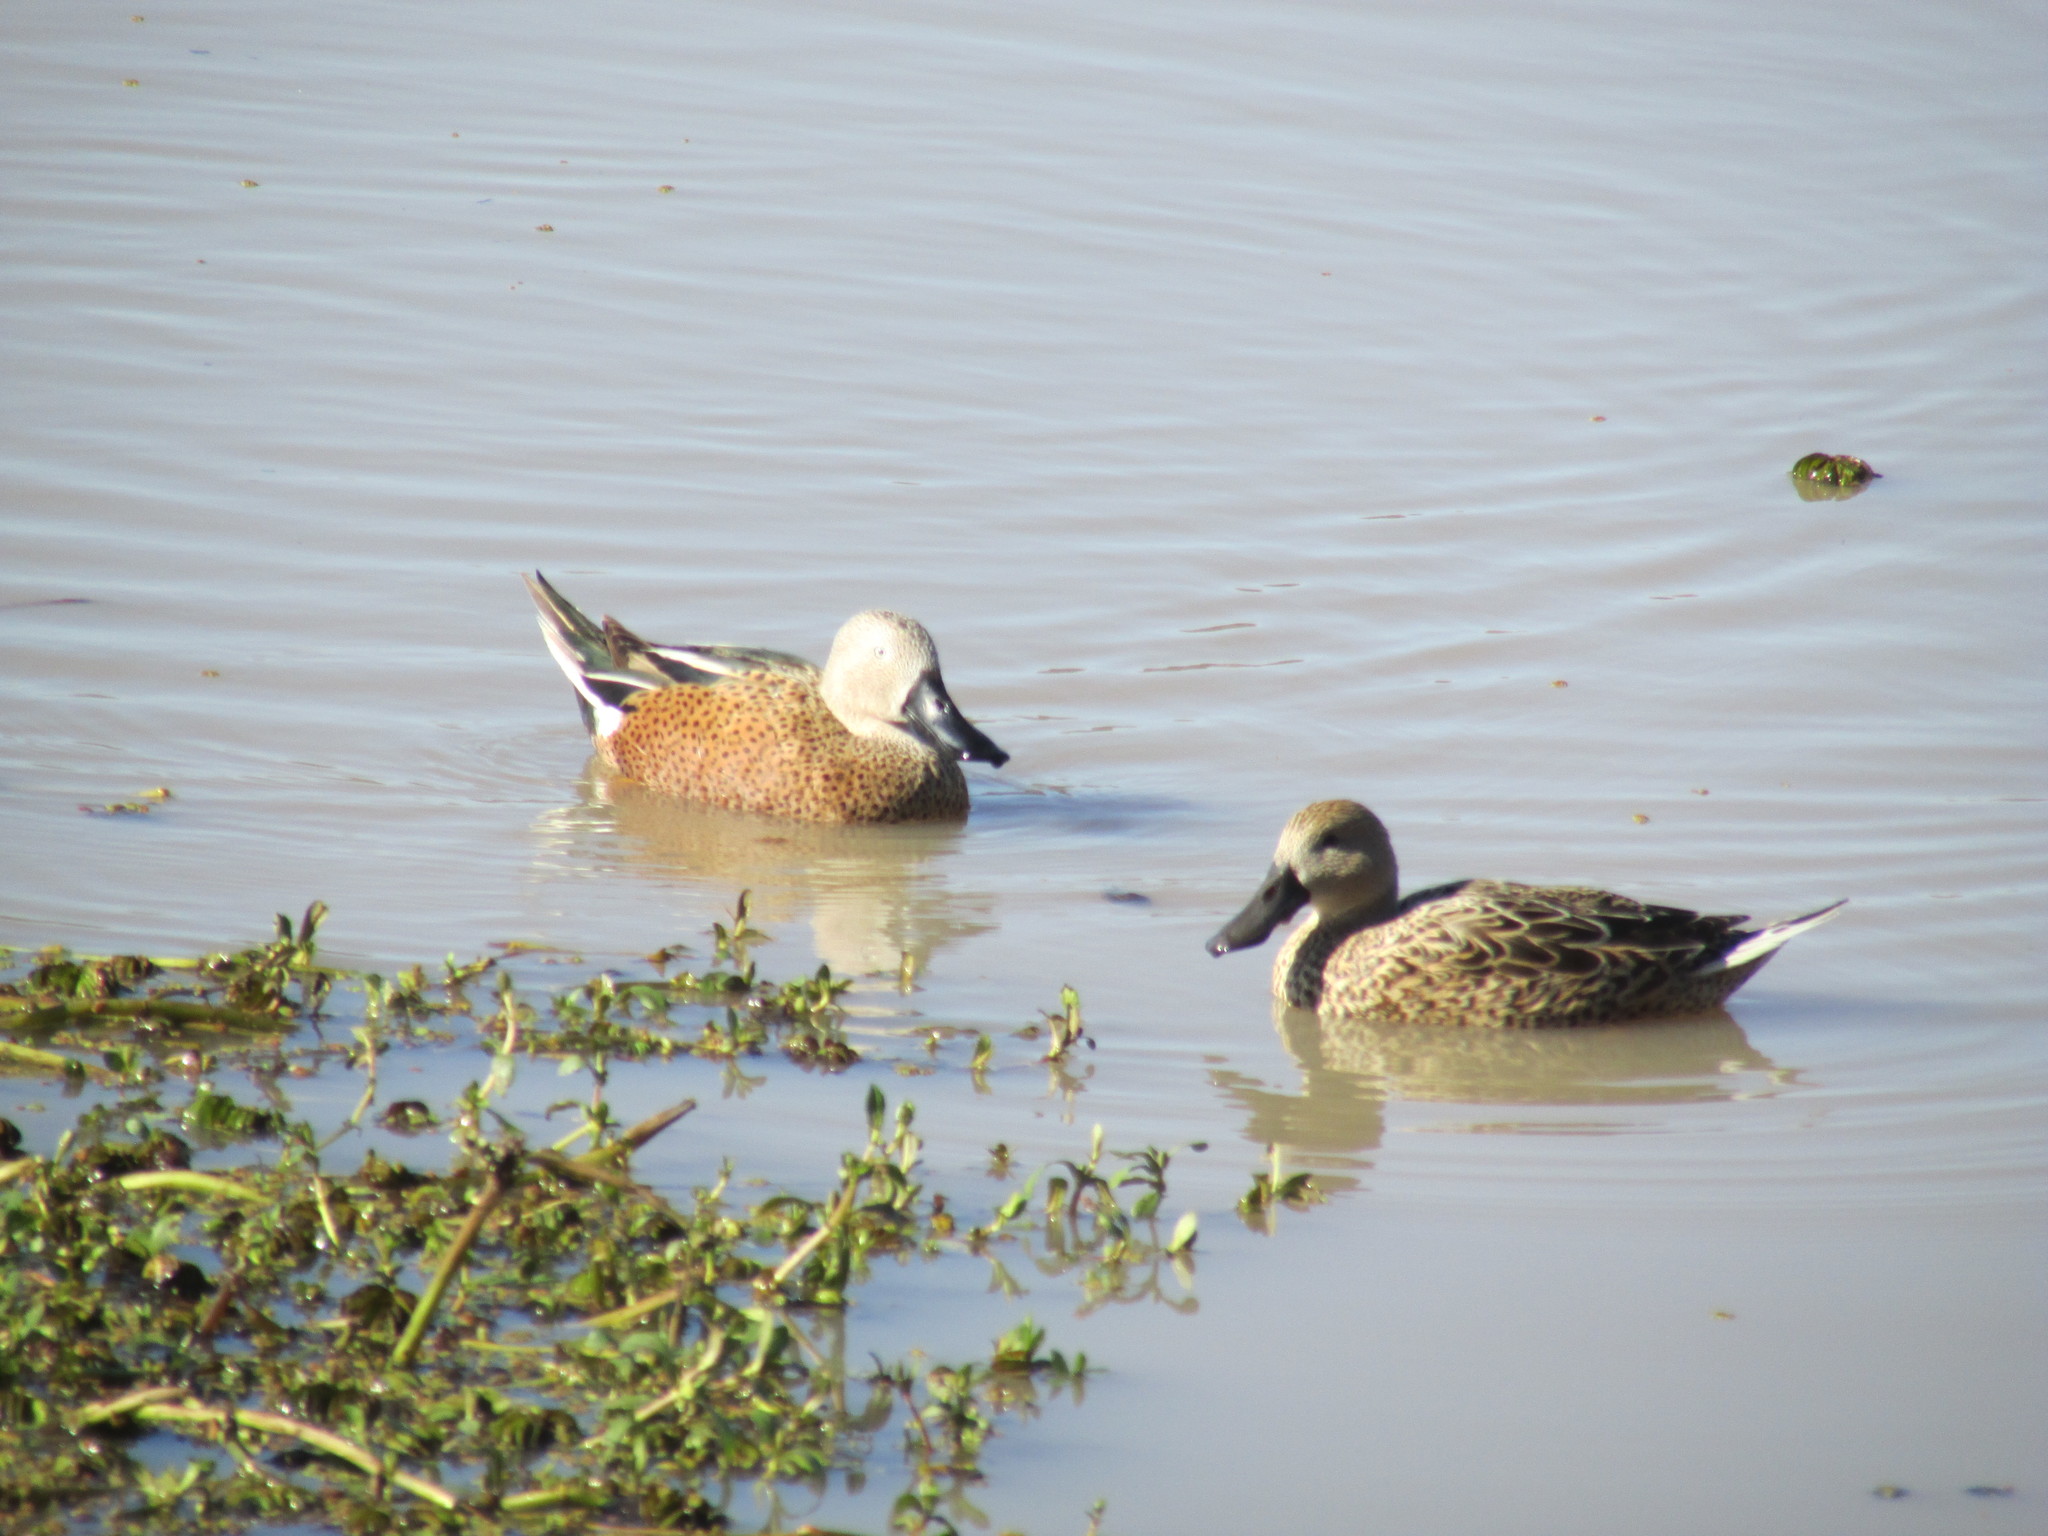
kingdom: Animalia
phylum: Chordata
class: Aves
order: Anseriformes
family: Anatidae
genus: Spatula
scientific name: Spatula platalea
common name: Red shoveler
